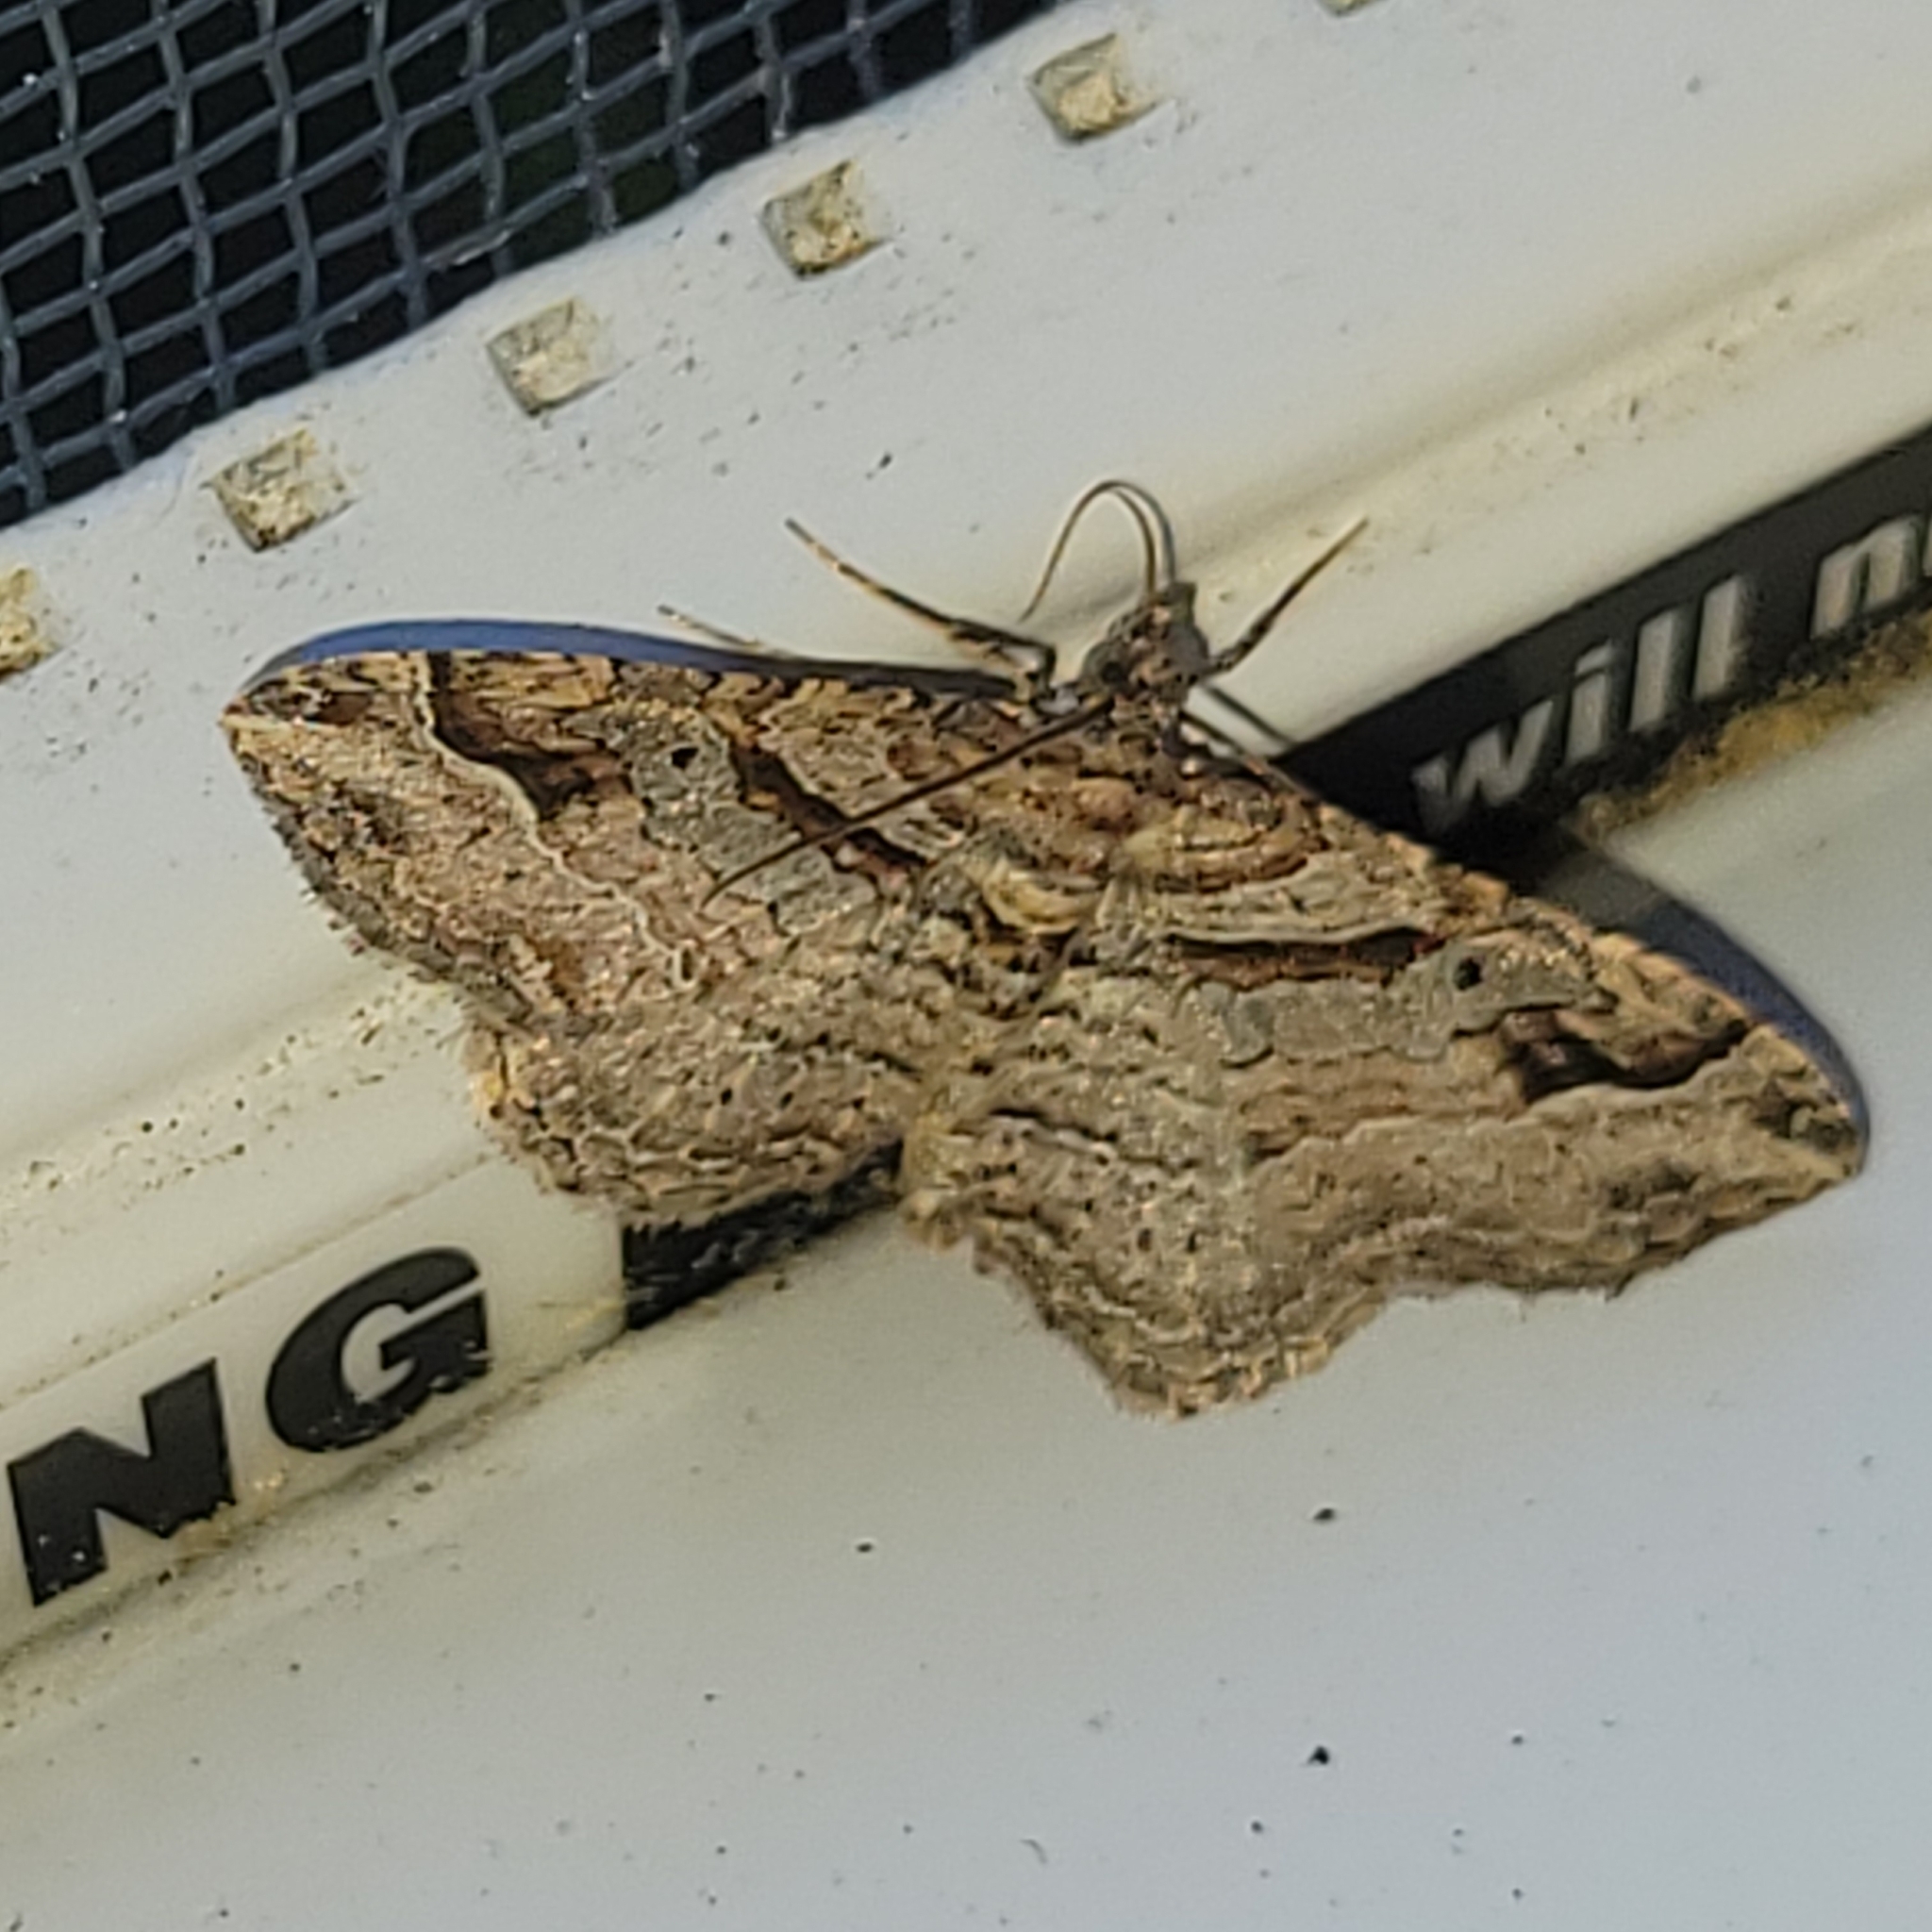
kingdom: Animalia
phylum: Arthropoda
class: Insecta
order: Lepidoptera
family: Geometridae
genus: Costaconvexa
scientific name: Costaconvexa centrostrigaria
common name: Bent-line carpet
